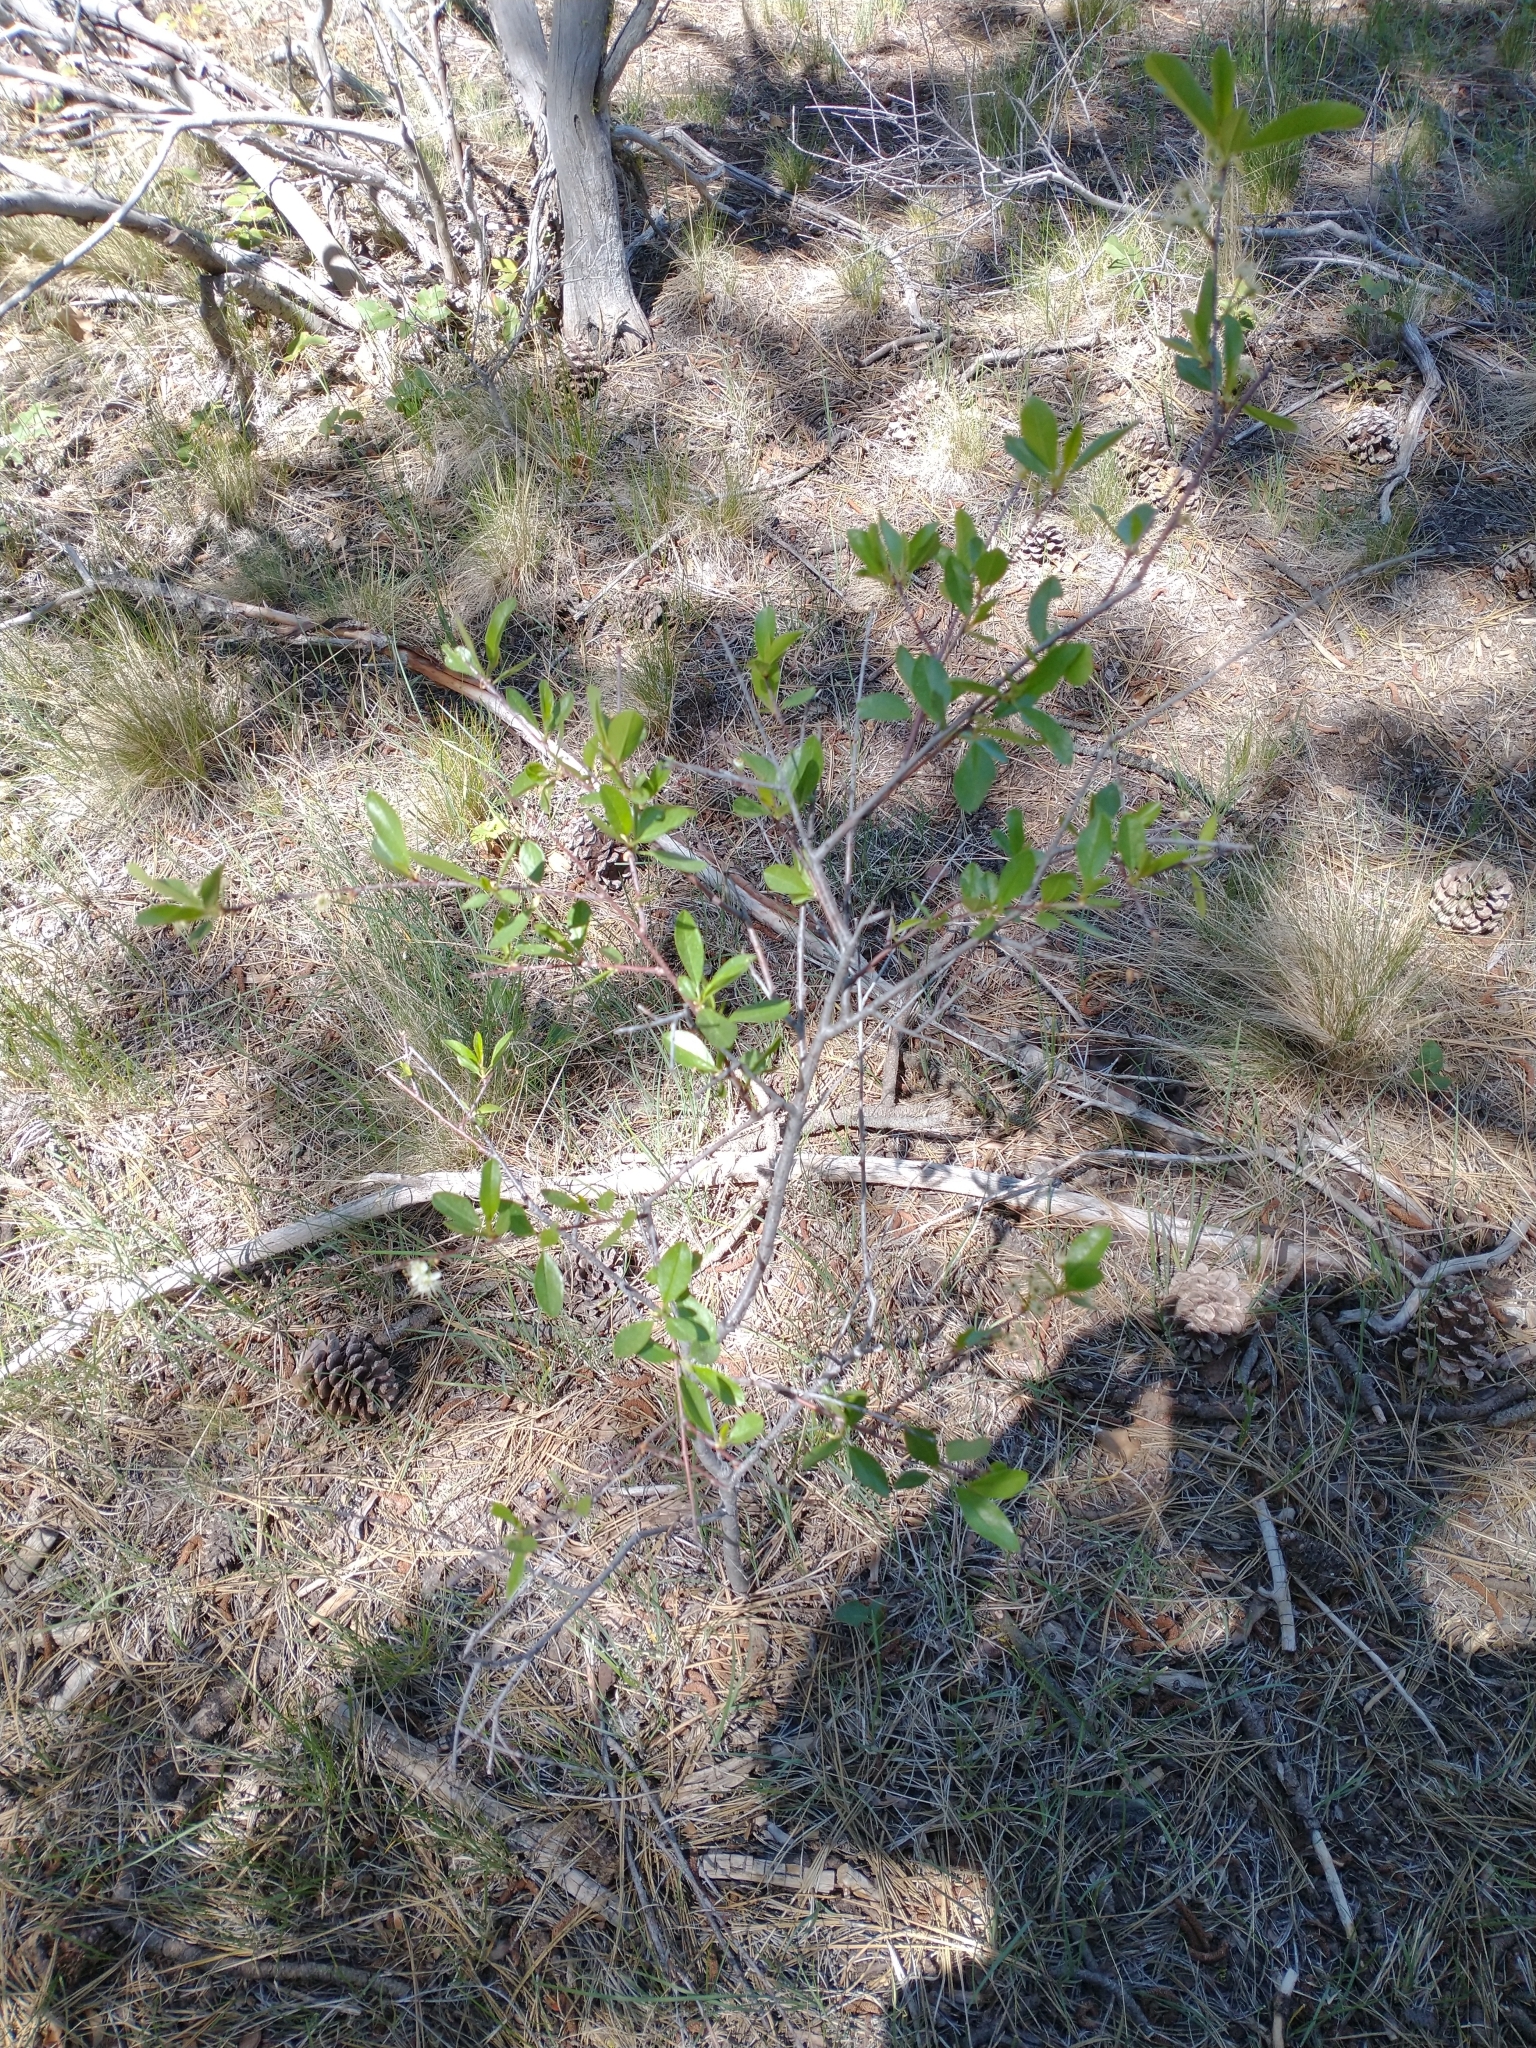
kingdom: Plantae
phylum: Tracheophyta
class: Magnoliopsida
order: Rosales
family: Rosaceae
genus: Prunus
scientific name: Prunus emarginata
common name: Bitter cherry
